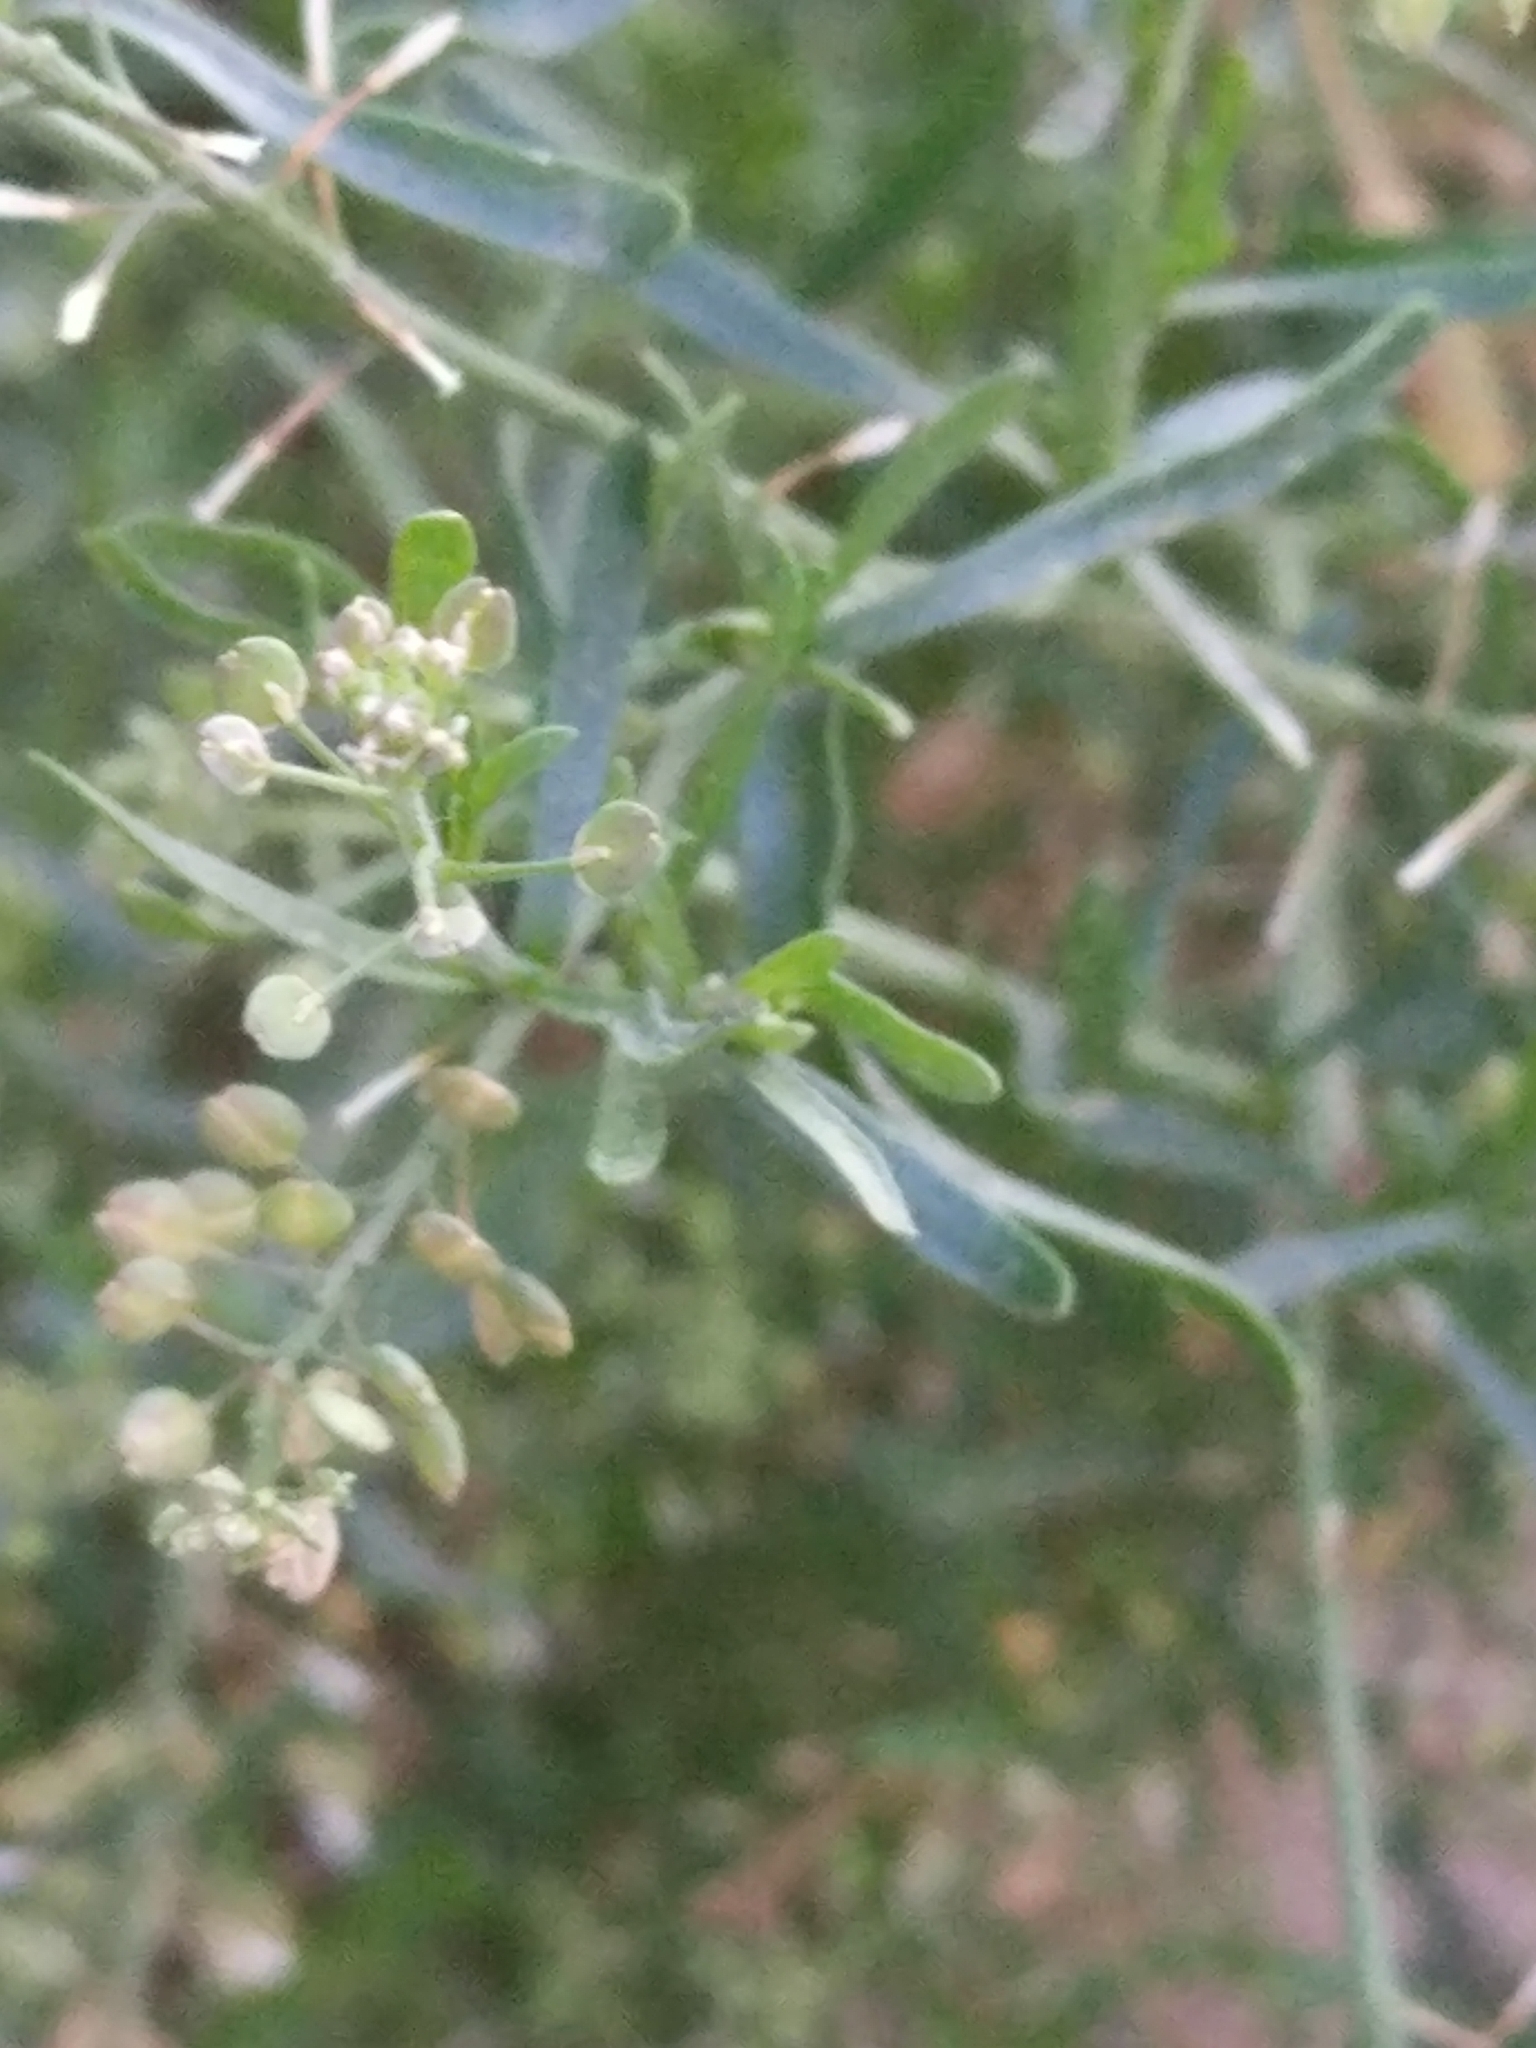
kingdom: Plantae
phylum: Tracheophyta
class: Magnoliopsida
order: Brassicales
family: Brassicaceae
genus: Lepidium
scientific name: Lepidium ruderale
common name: Narrow-leaved pepperwort
